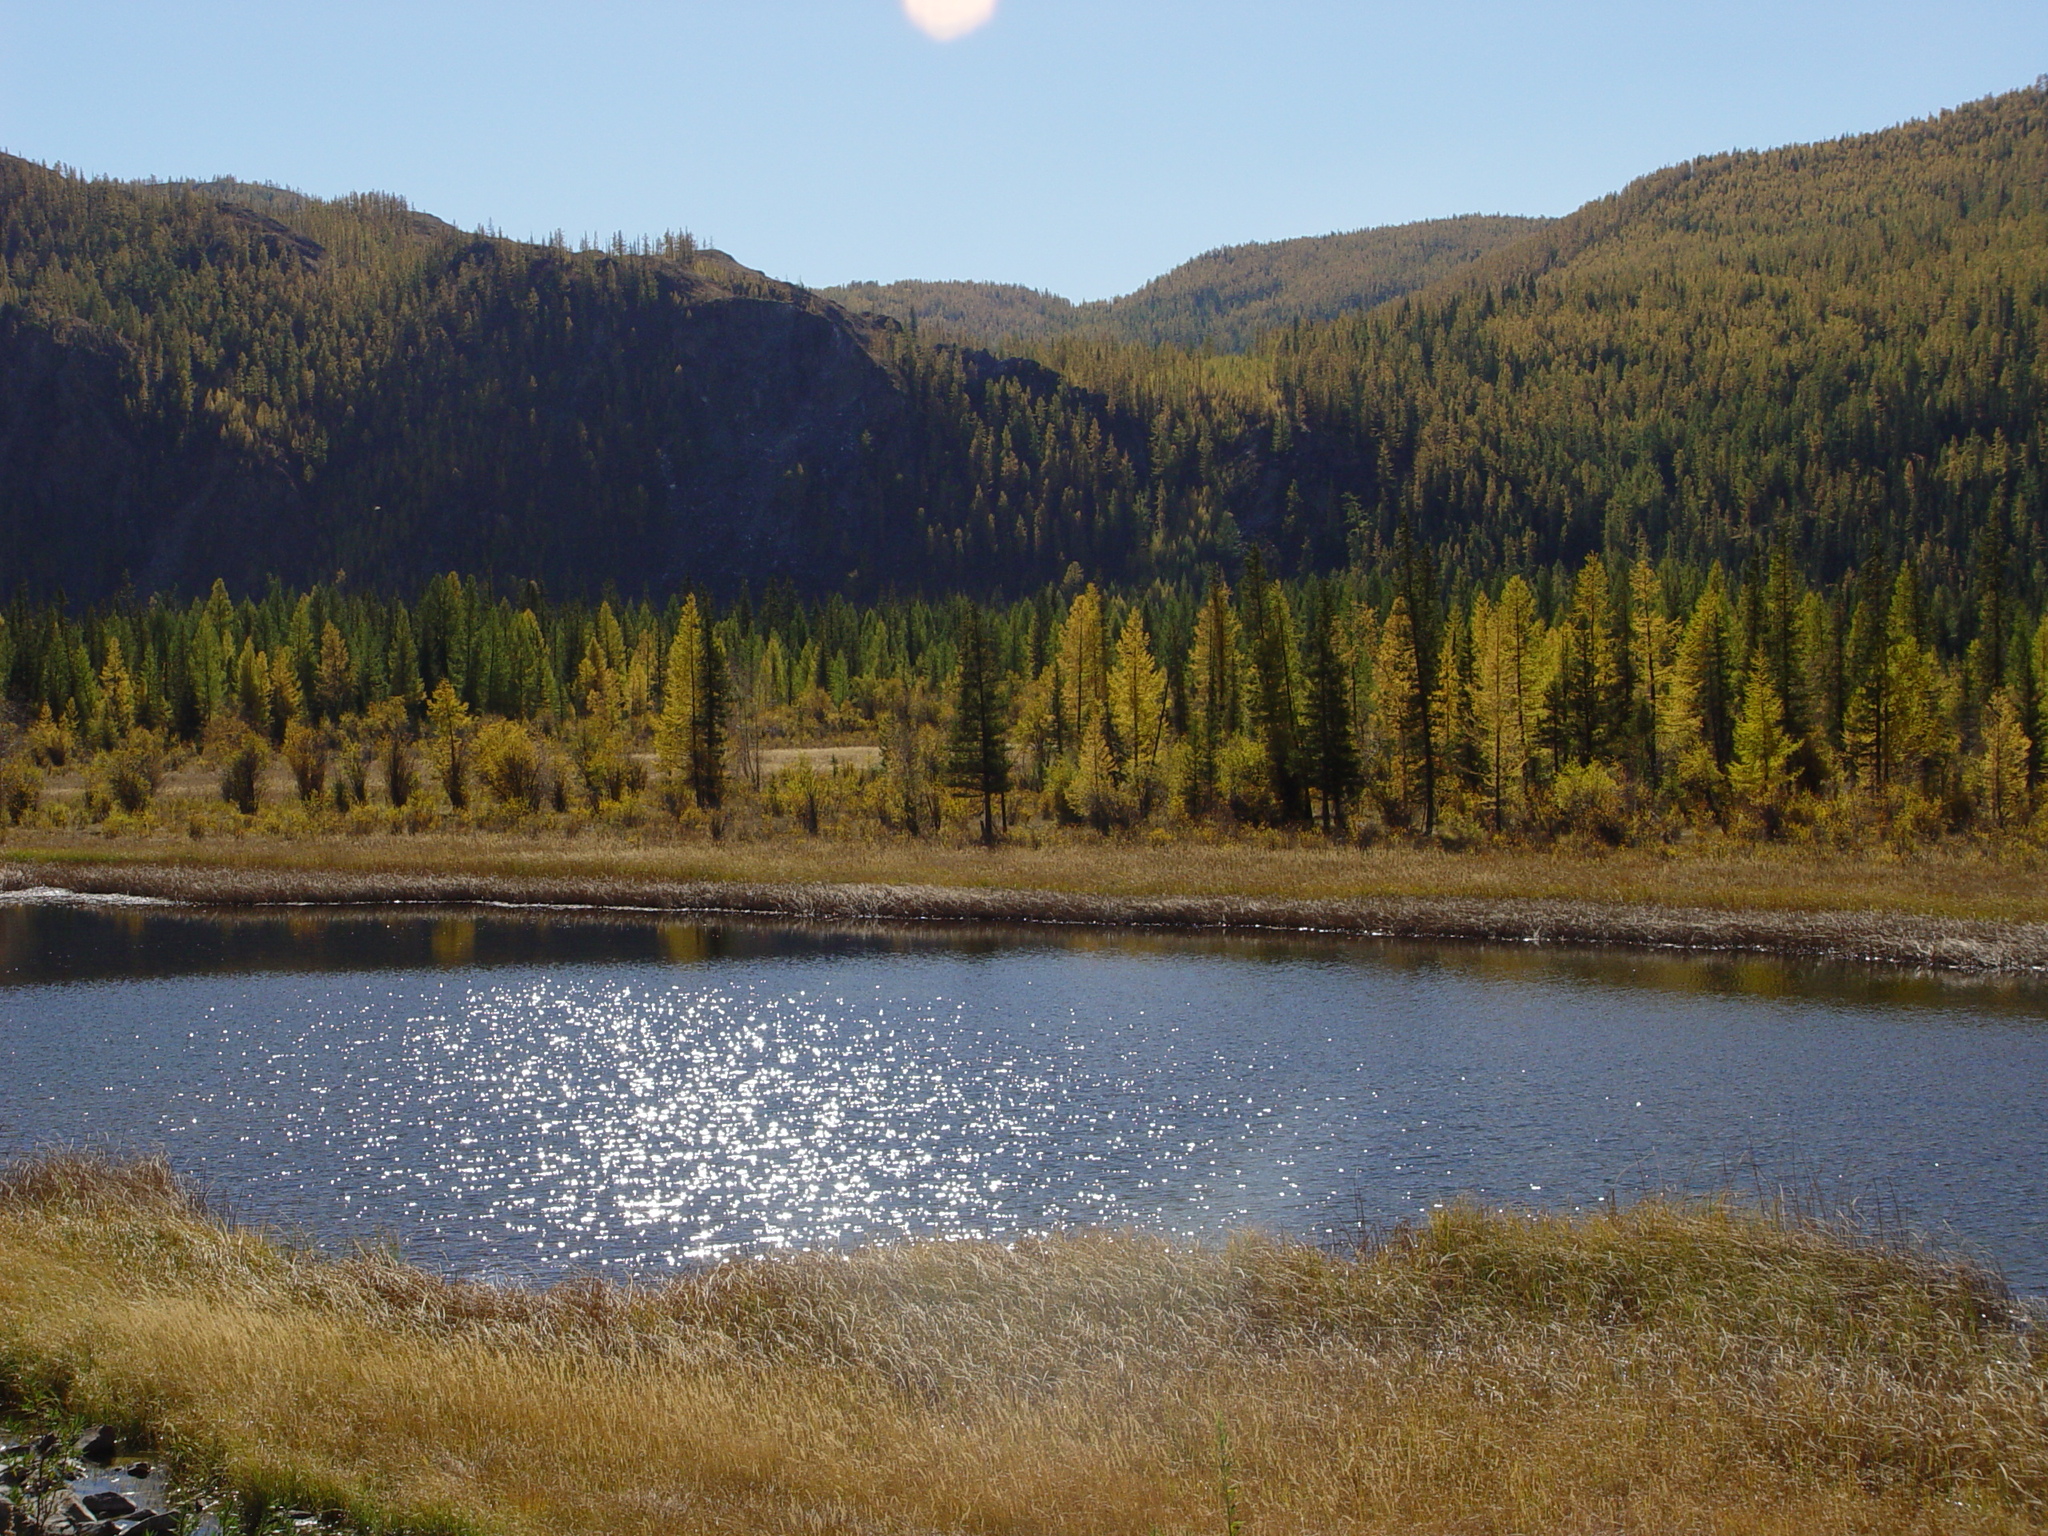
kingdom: Plantae
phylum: Tracheophyta
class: Pinopsida
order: Pinales
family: Pinaceae
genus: Picea
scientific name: Picea obovata
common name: Siberian spruce
